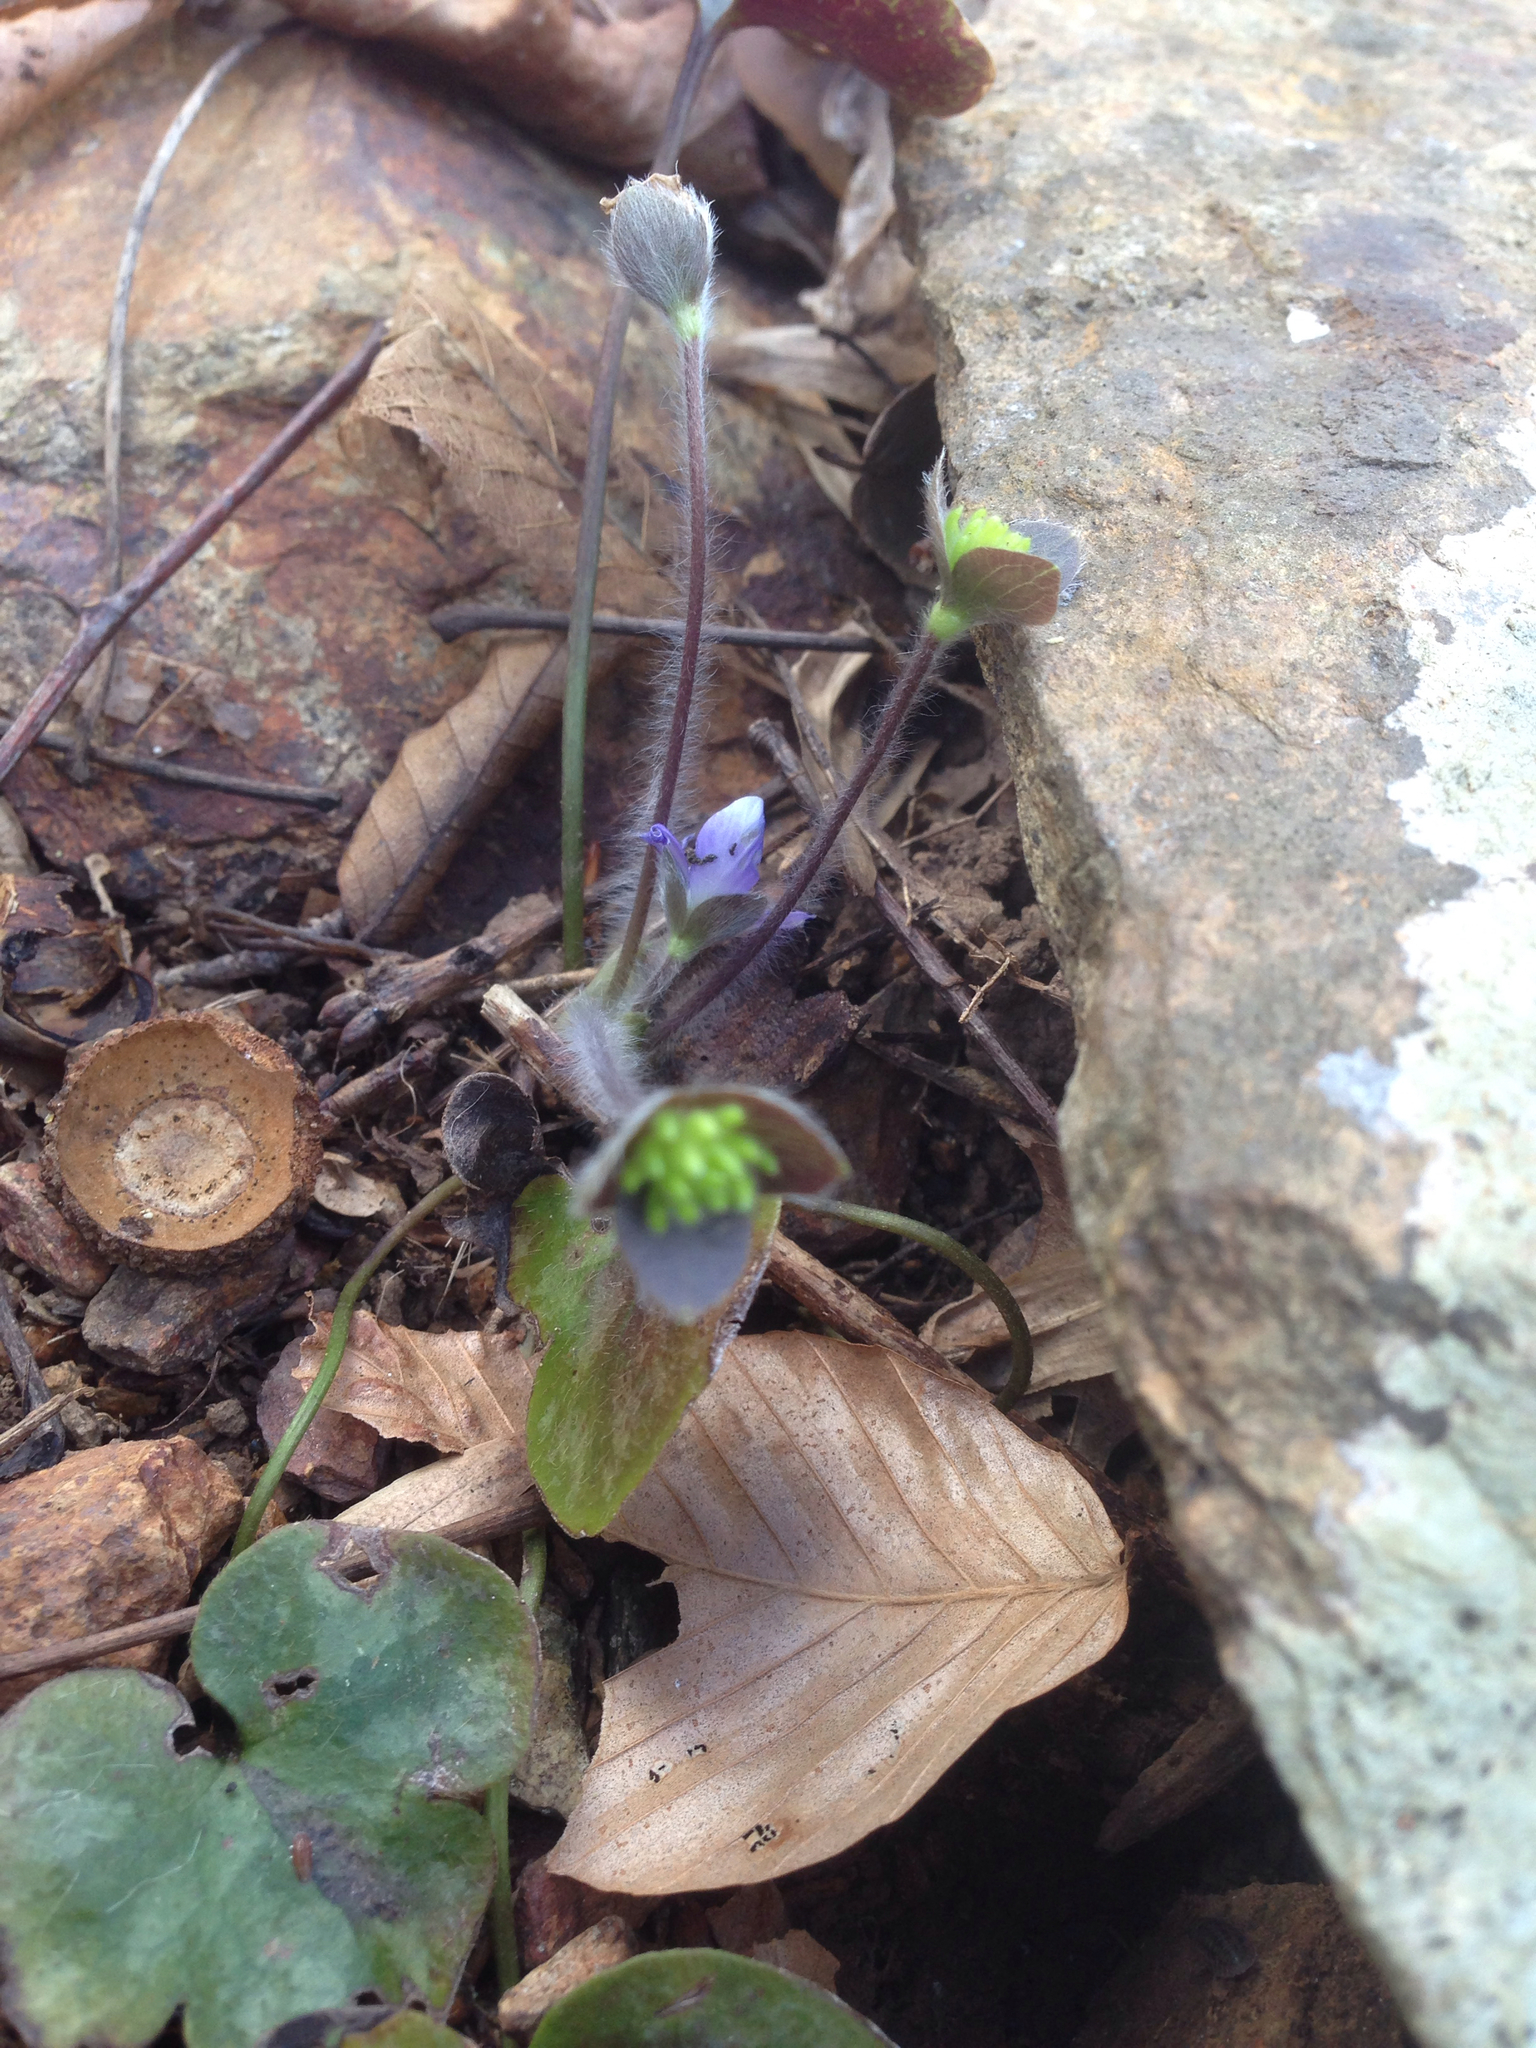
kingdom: Plantae
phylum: Tracheophyta
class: Magnoliopsida
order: Ranunculales
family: Ranunculaceae
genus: Hepatica
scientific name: Hepatica americana
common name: American hepatica
